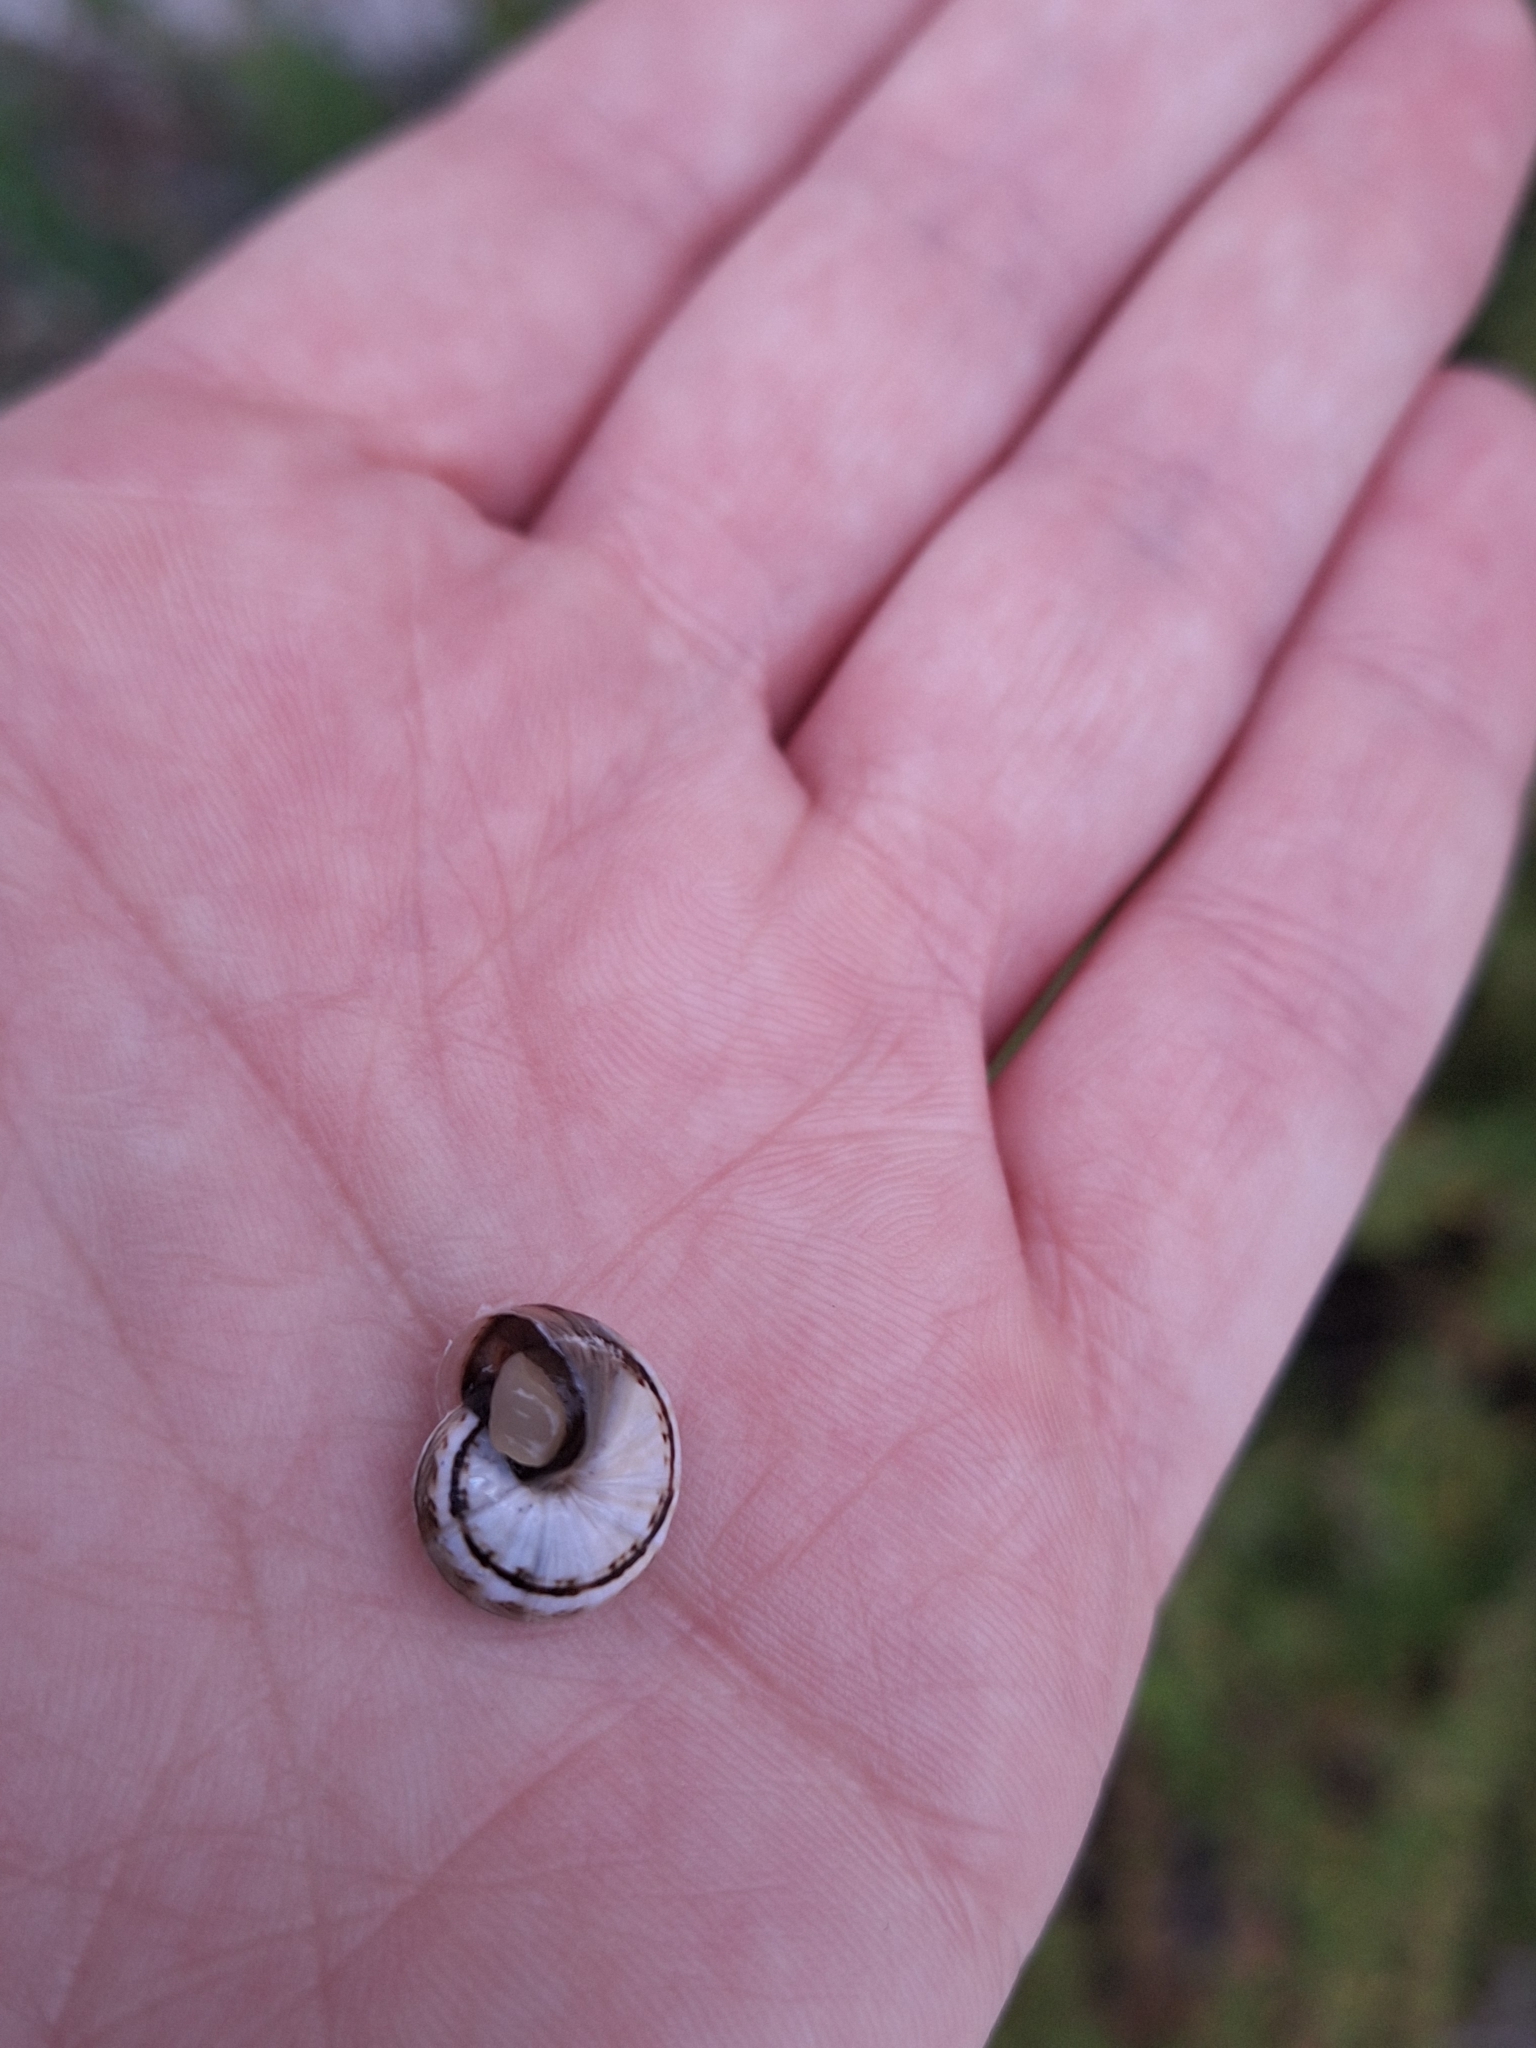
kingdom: Animalia
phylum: Mollusca
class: Gastropoda
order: Stylommatophora
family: Helicidae
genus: Theba
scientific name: Theba pisana
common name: White snail
